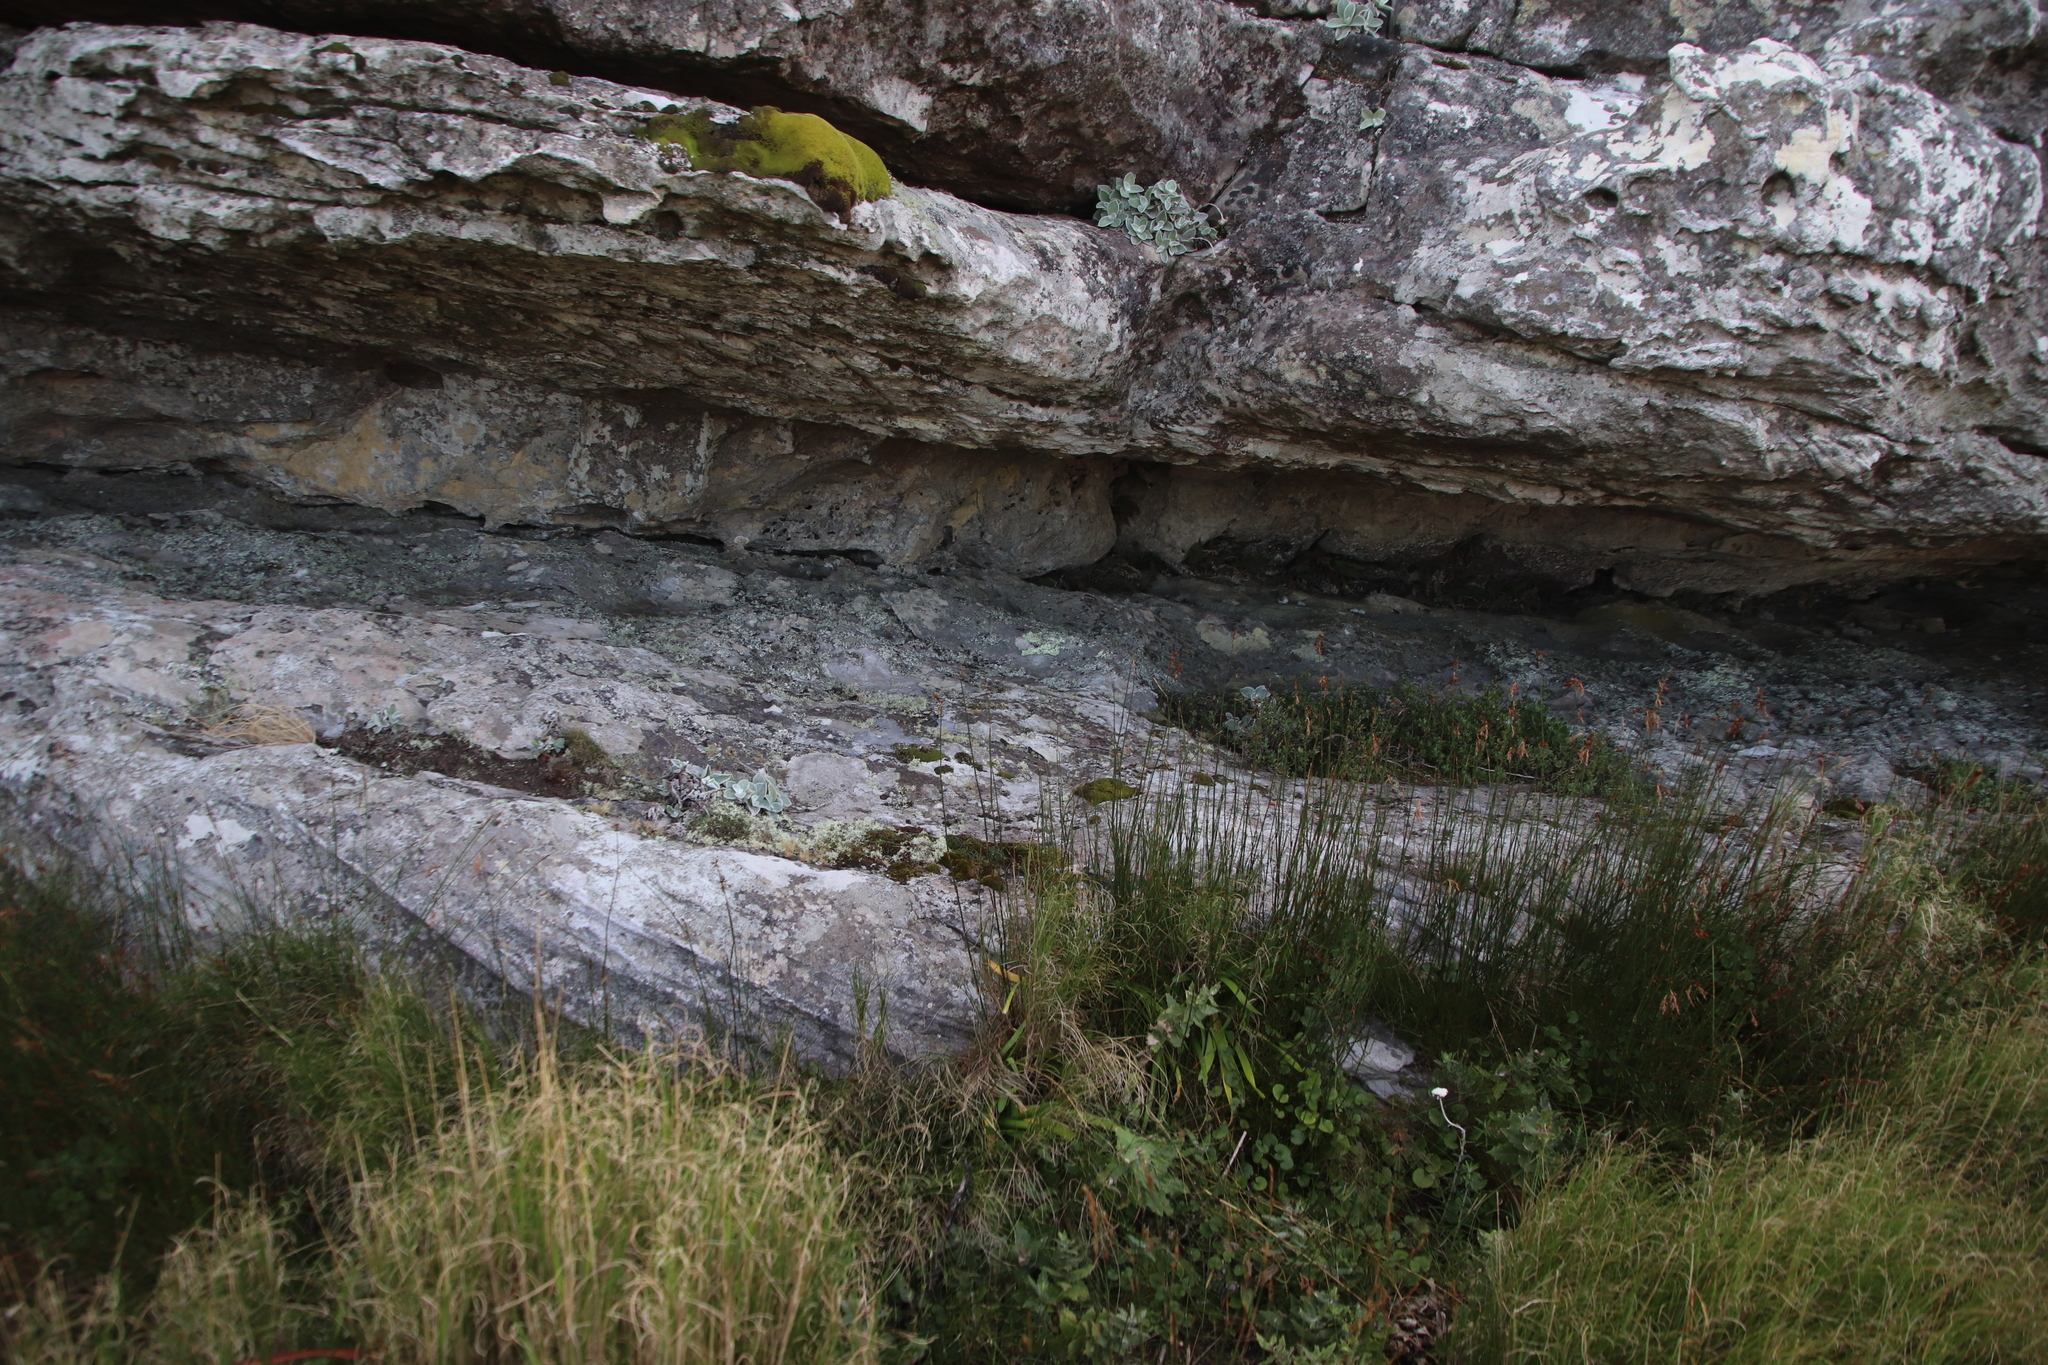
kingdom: Plantae
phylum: Tracheophyta
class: Magnoliopsida
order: Asterales
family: Asteraceae
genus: Helichrysum
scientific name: Helichrysum grandiflorum
